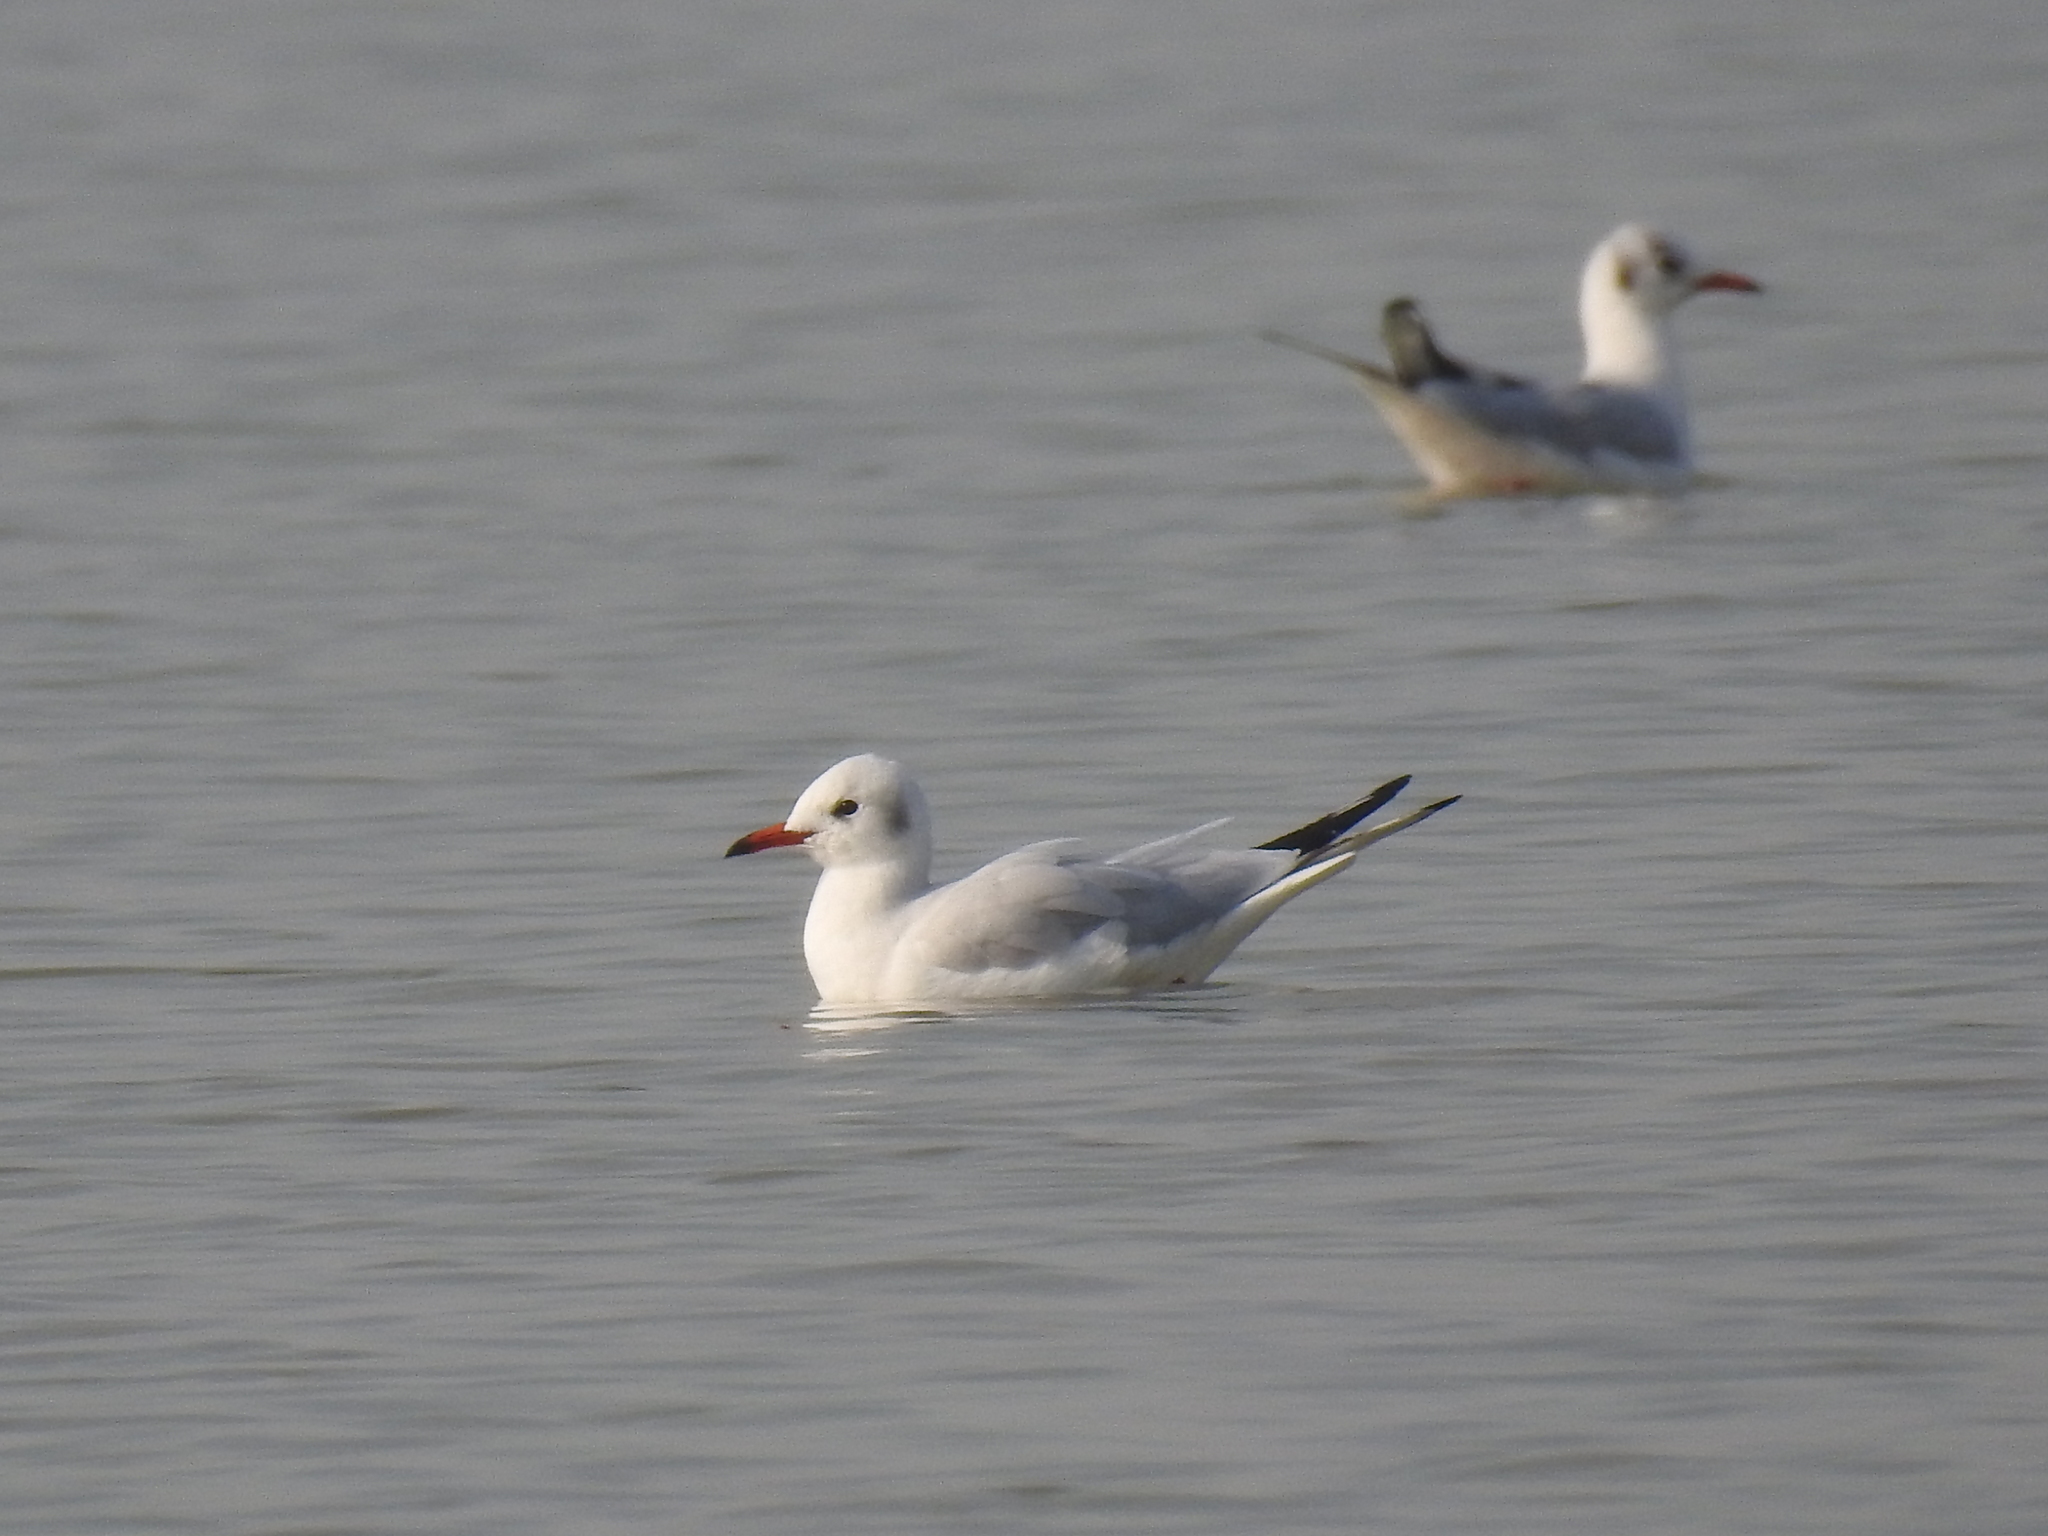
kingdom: Animalia
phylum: Chordata
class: Aves
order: Charadriiformes
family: Laridae
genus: Chroicocephalus
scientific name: Chroicocephalus ridibundus
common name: Black-headed gull
